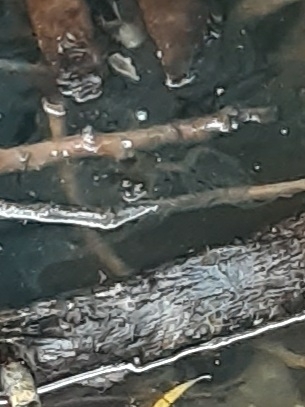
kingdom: Animalia
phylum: Chordata
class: Amphibia
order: Anura
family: Ranidae
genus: Lithobates
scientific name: Lithobates
